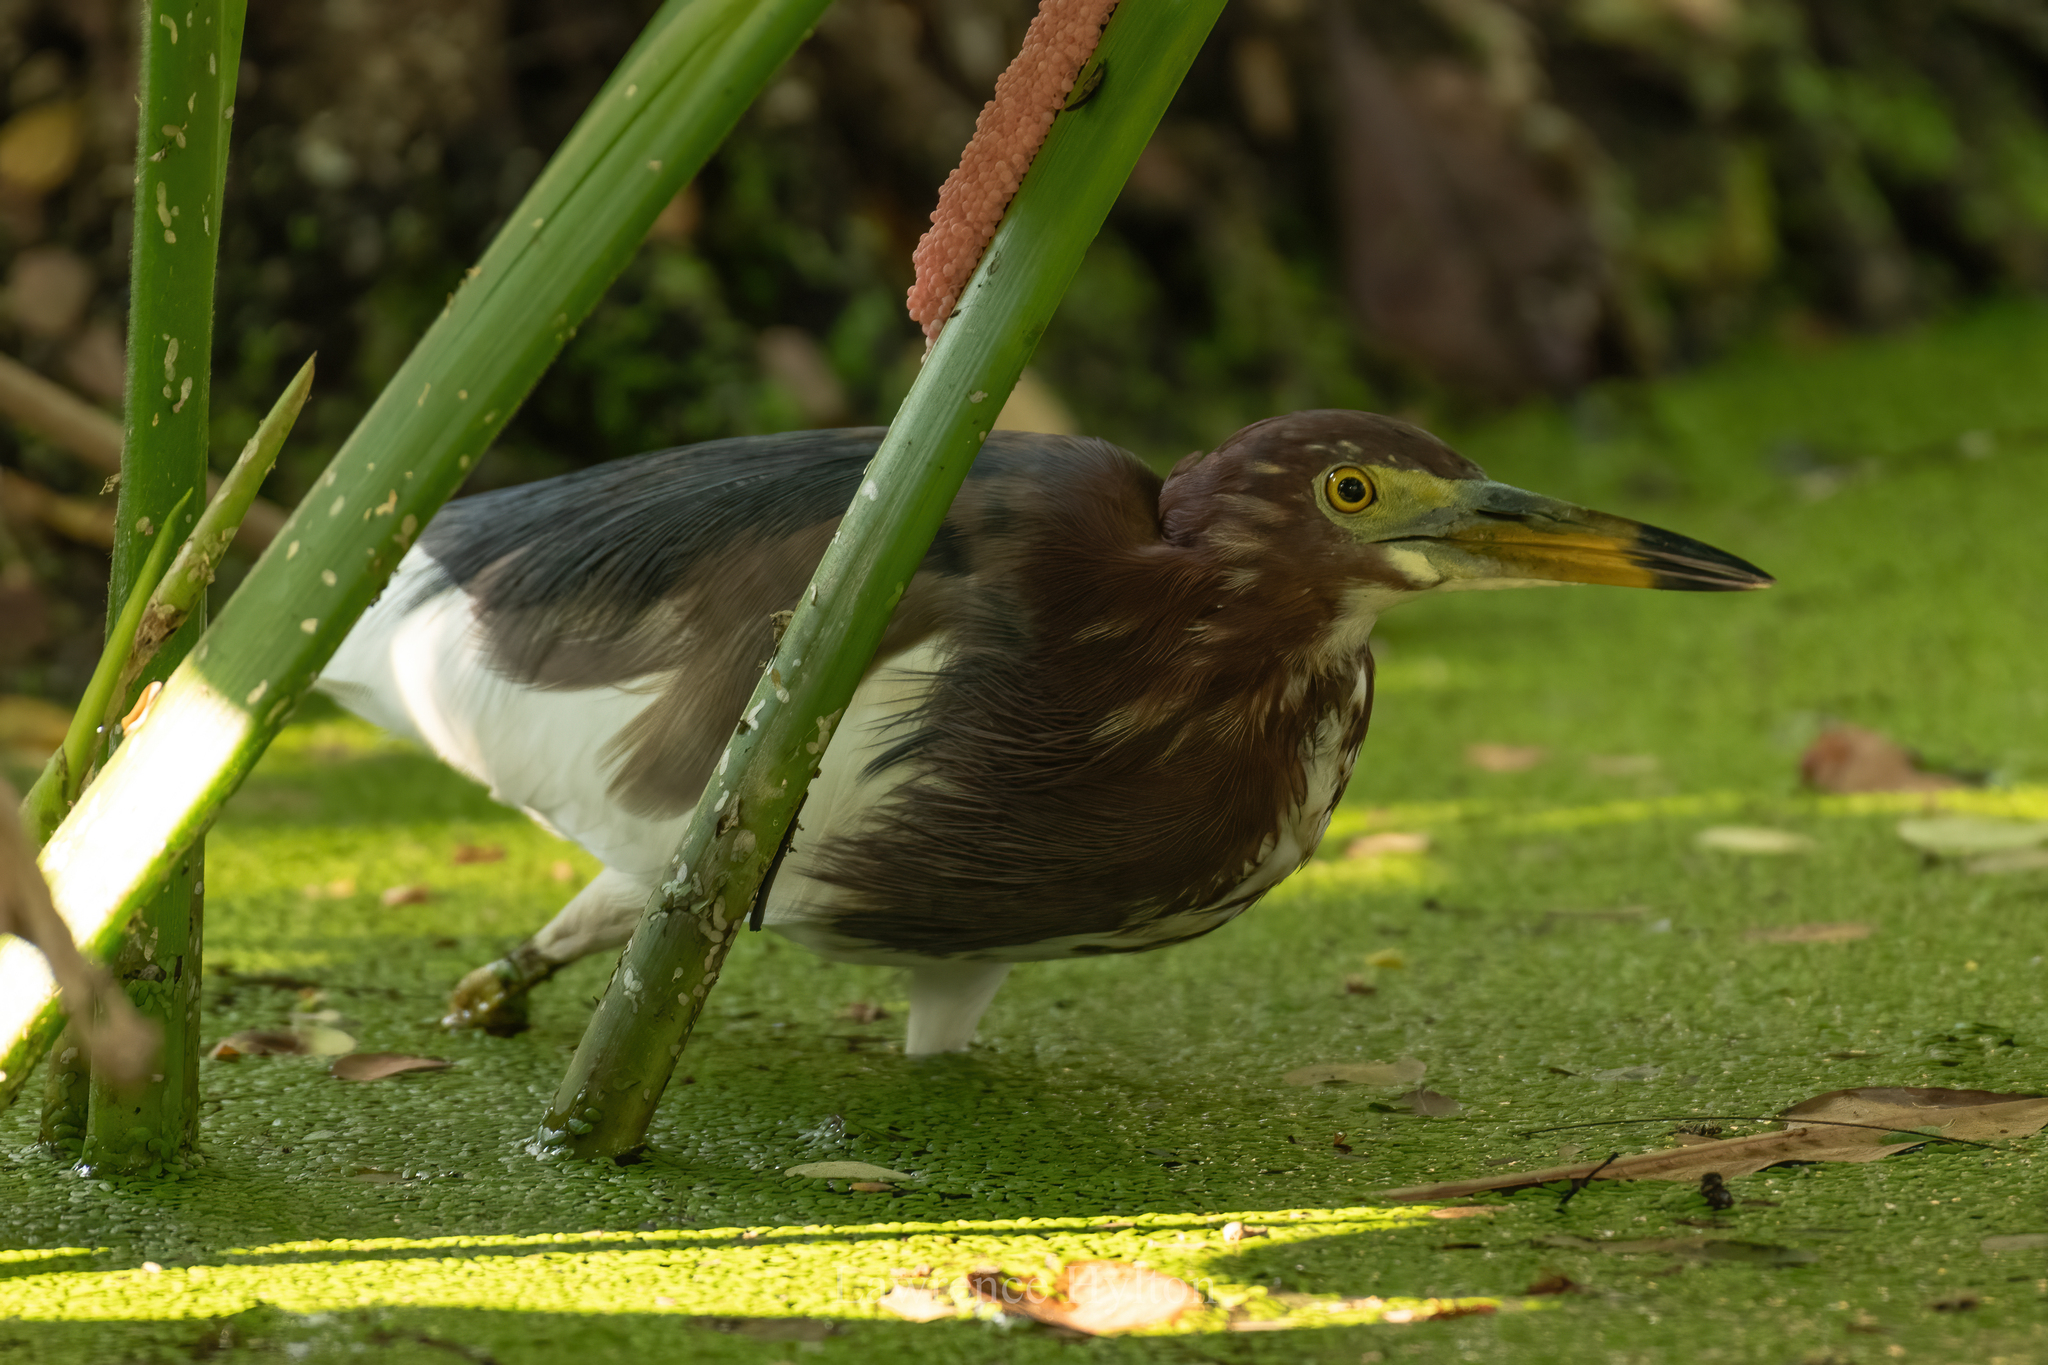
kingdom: Animalia
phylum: Chordata
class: Aves
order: Pelecaniformes
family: Ardeidae
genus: Ardeola
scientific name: Ardeola bacchus
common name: Chinese pond heron
